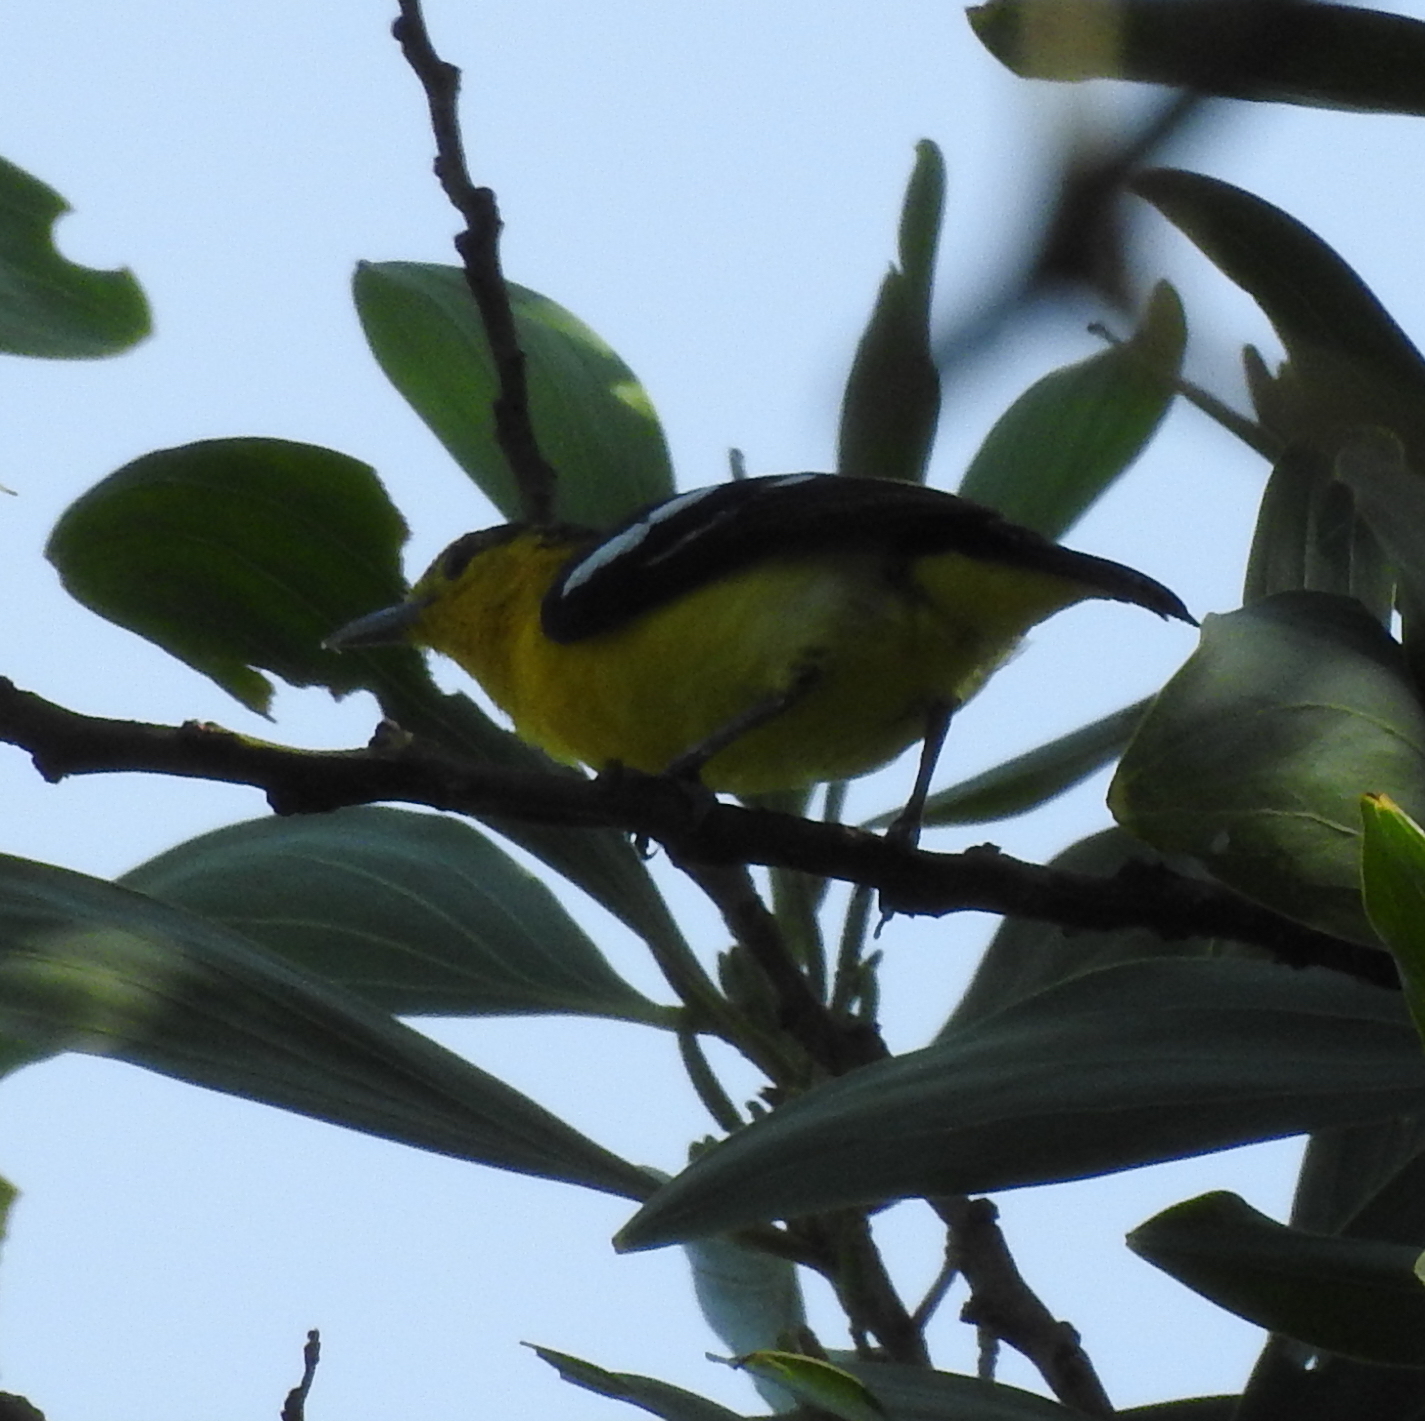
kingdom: Animalia
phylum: Chordata
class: Aves
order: Passeriformes
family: Aegithinidae
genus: Aegithina
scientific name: Aegithina tiphia
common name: Common iora
